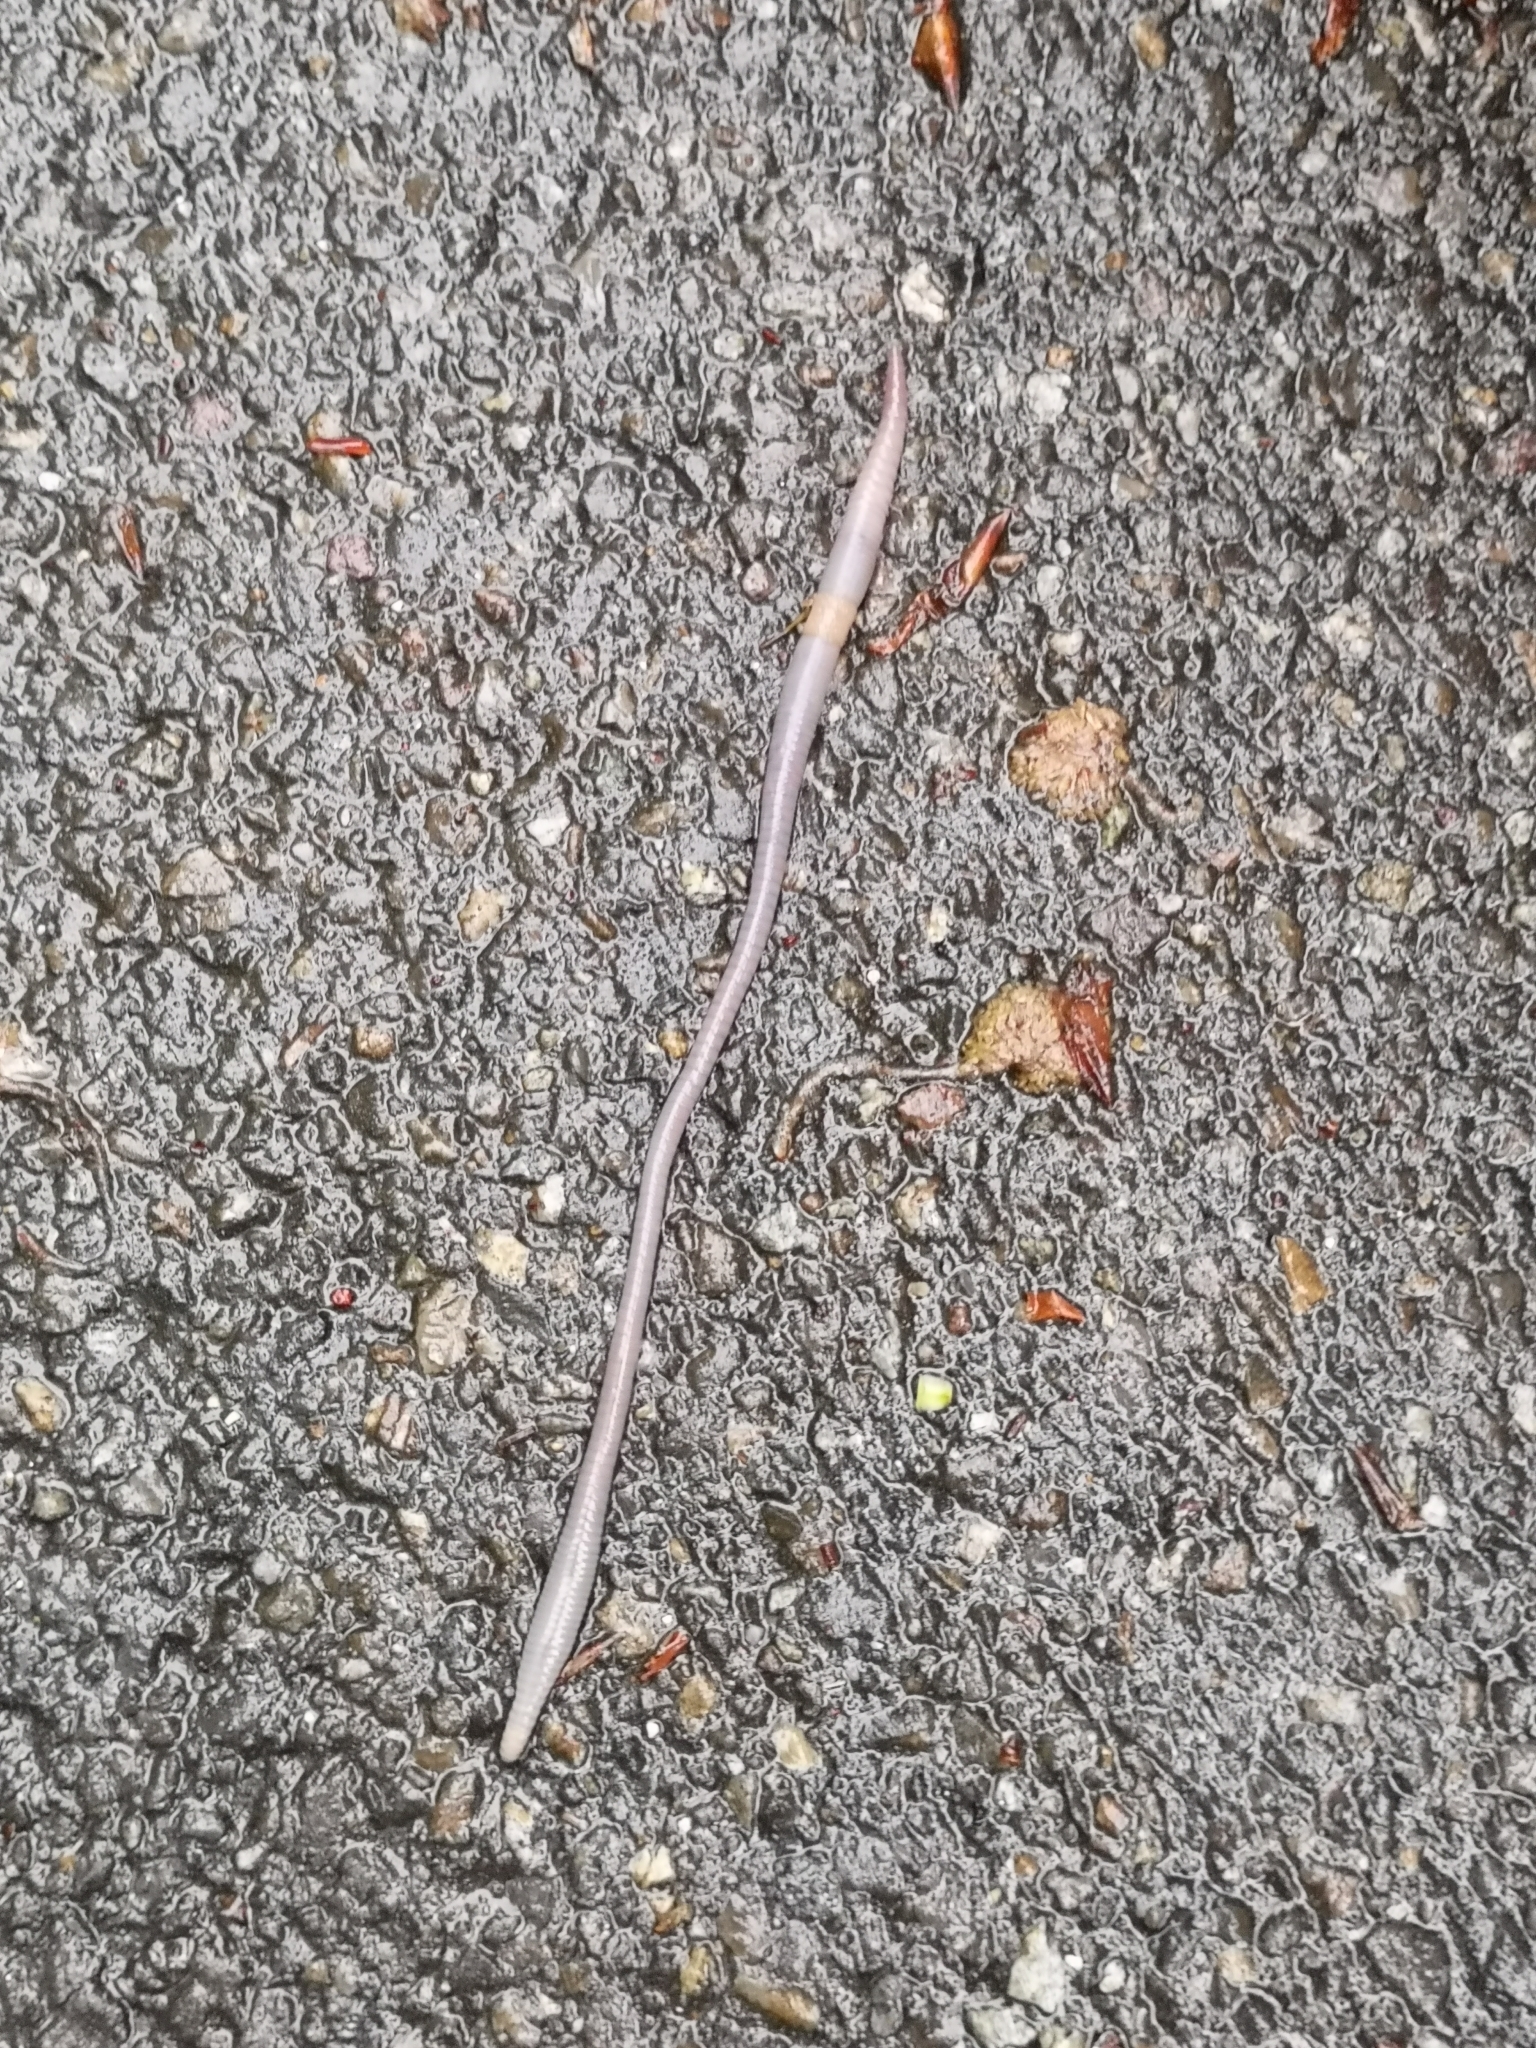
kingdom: Animalia
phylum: Annelida
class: Clitellata
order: Crassiclitellata
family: Lumbricidae
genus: Lumbricus
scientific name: Lumbricus terrestris
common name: Common earthworm
